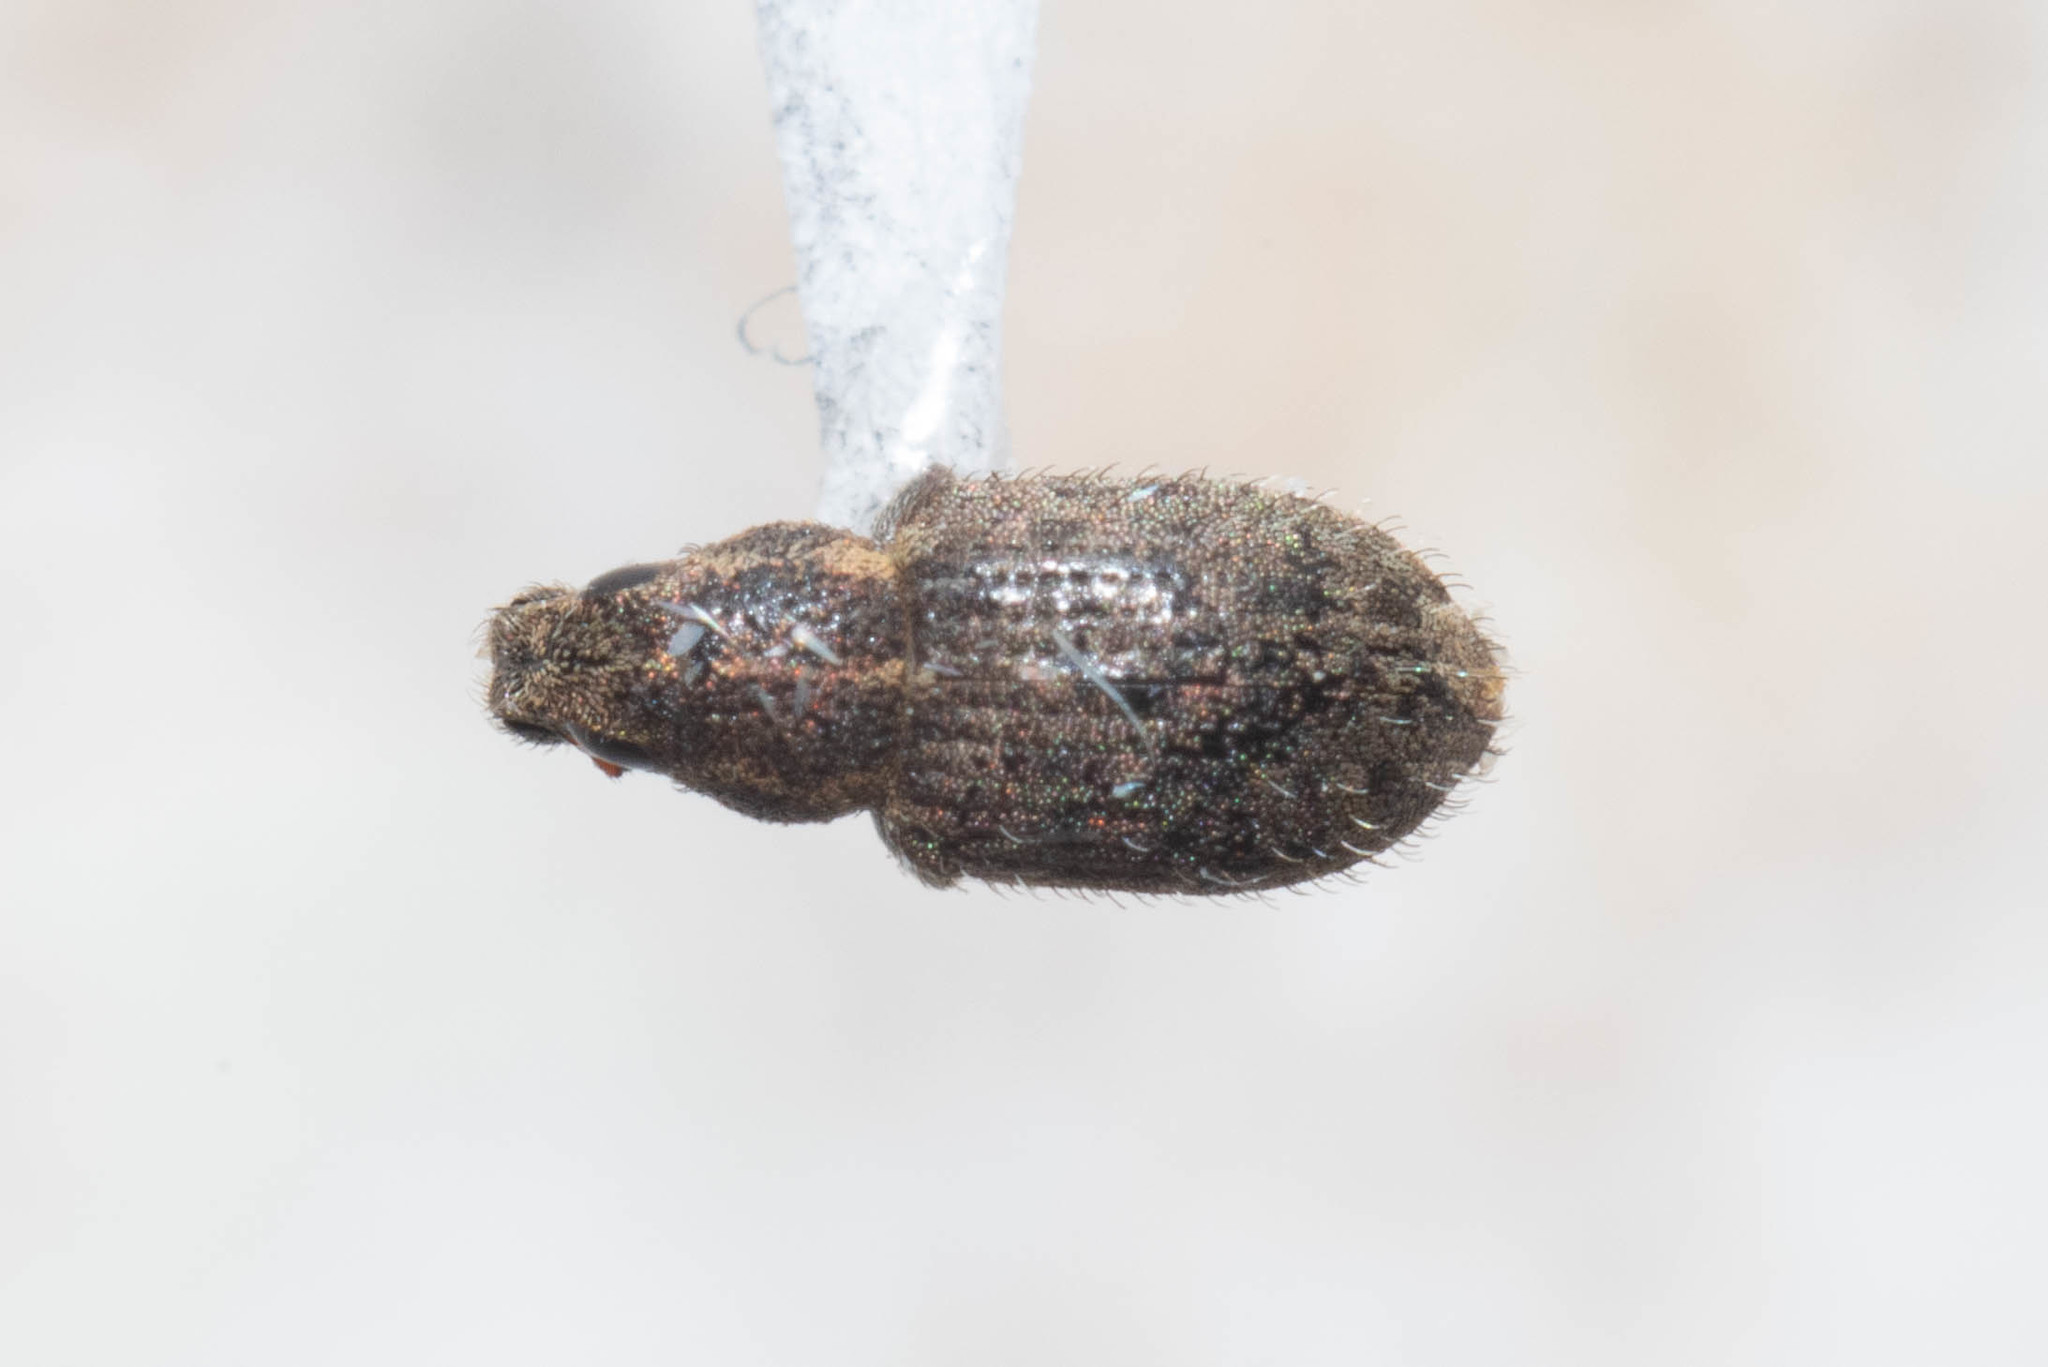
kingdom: Animalia
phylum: Arthropoda
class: Insecta
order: Coleoptera
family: Curculionidae
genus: Sitona
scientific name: Sitona hispidulus
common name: Clover weevil
